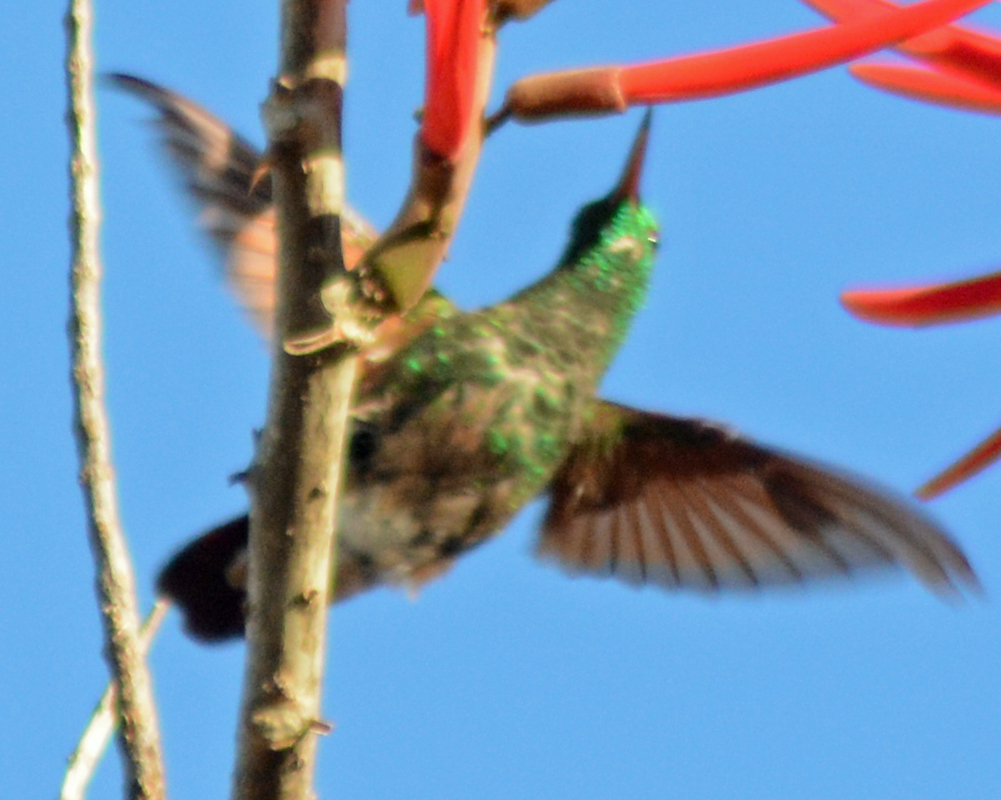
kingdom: Animalia
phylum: Chordata
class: Aves
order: Apodiformes
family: Trochilidae
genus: Saucerottia
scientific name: Saucerottia beryllina
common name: Berylline hummingbird
